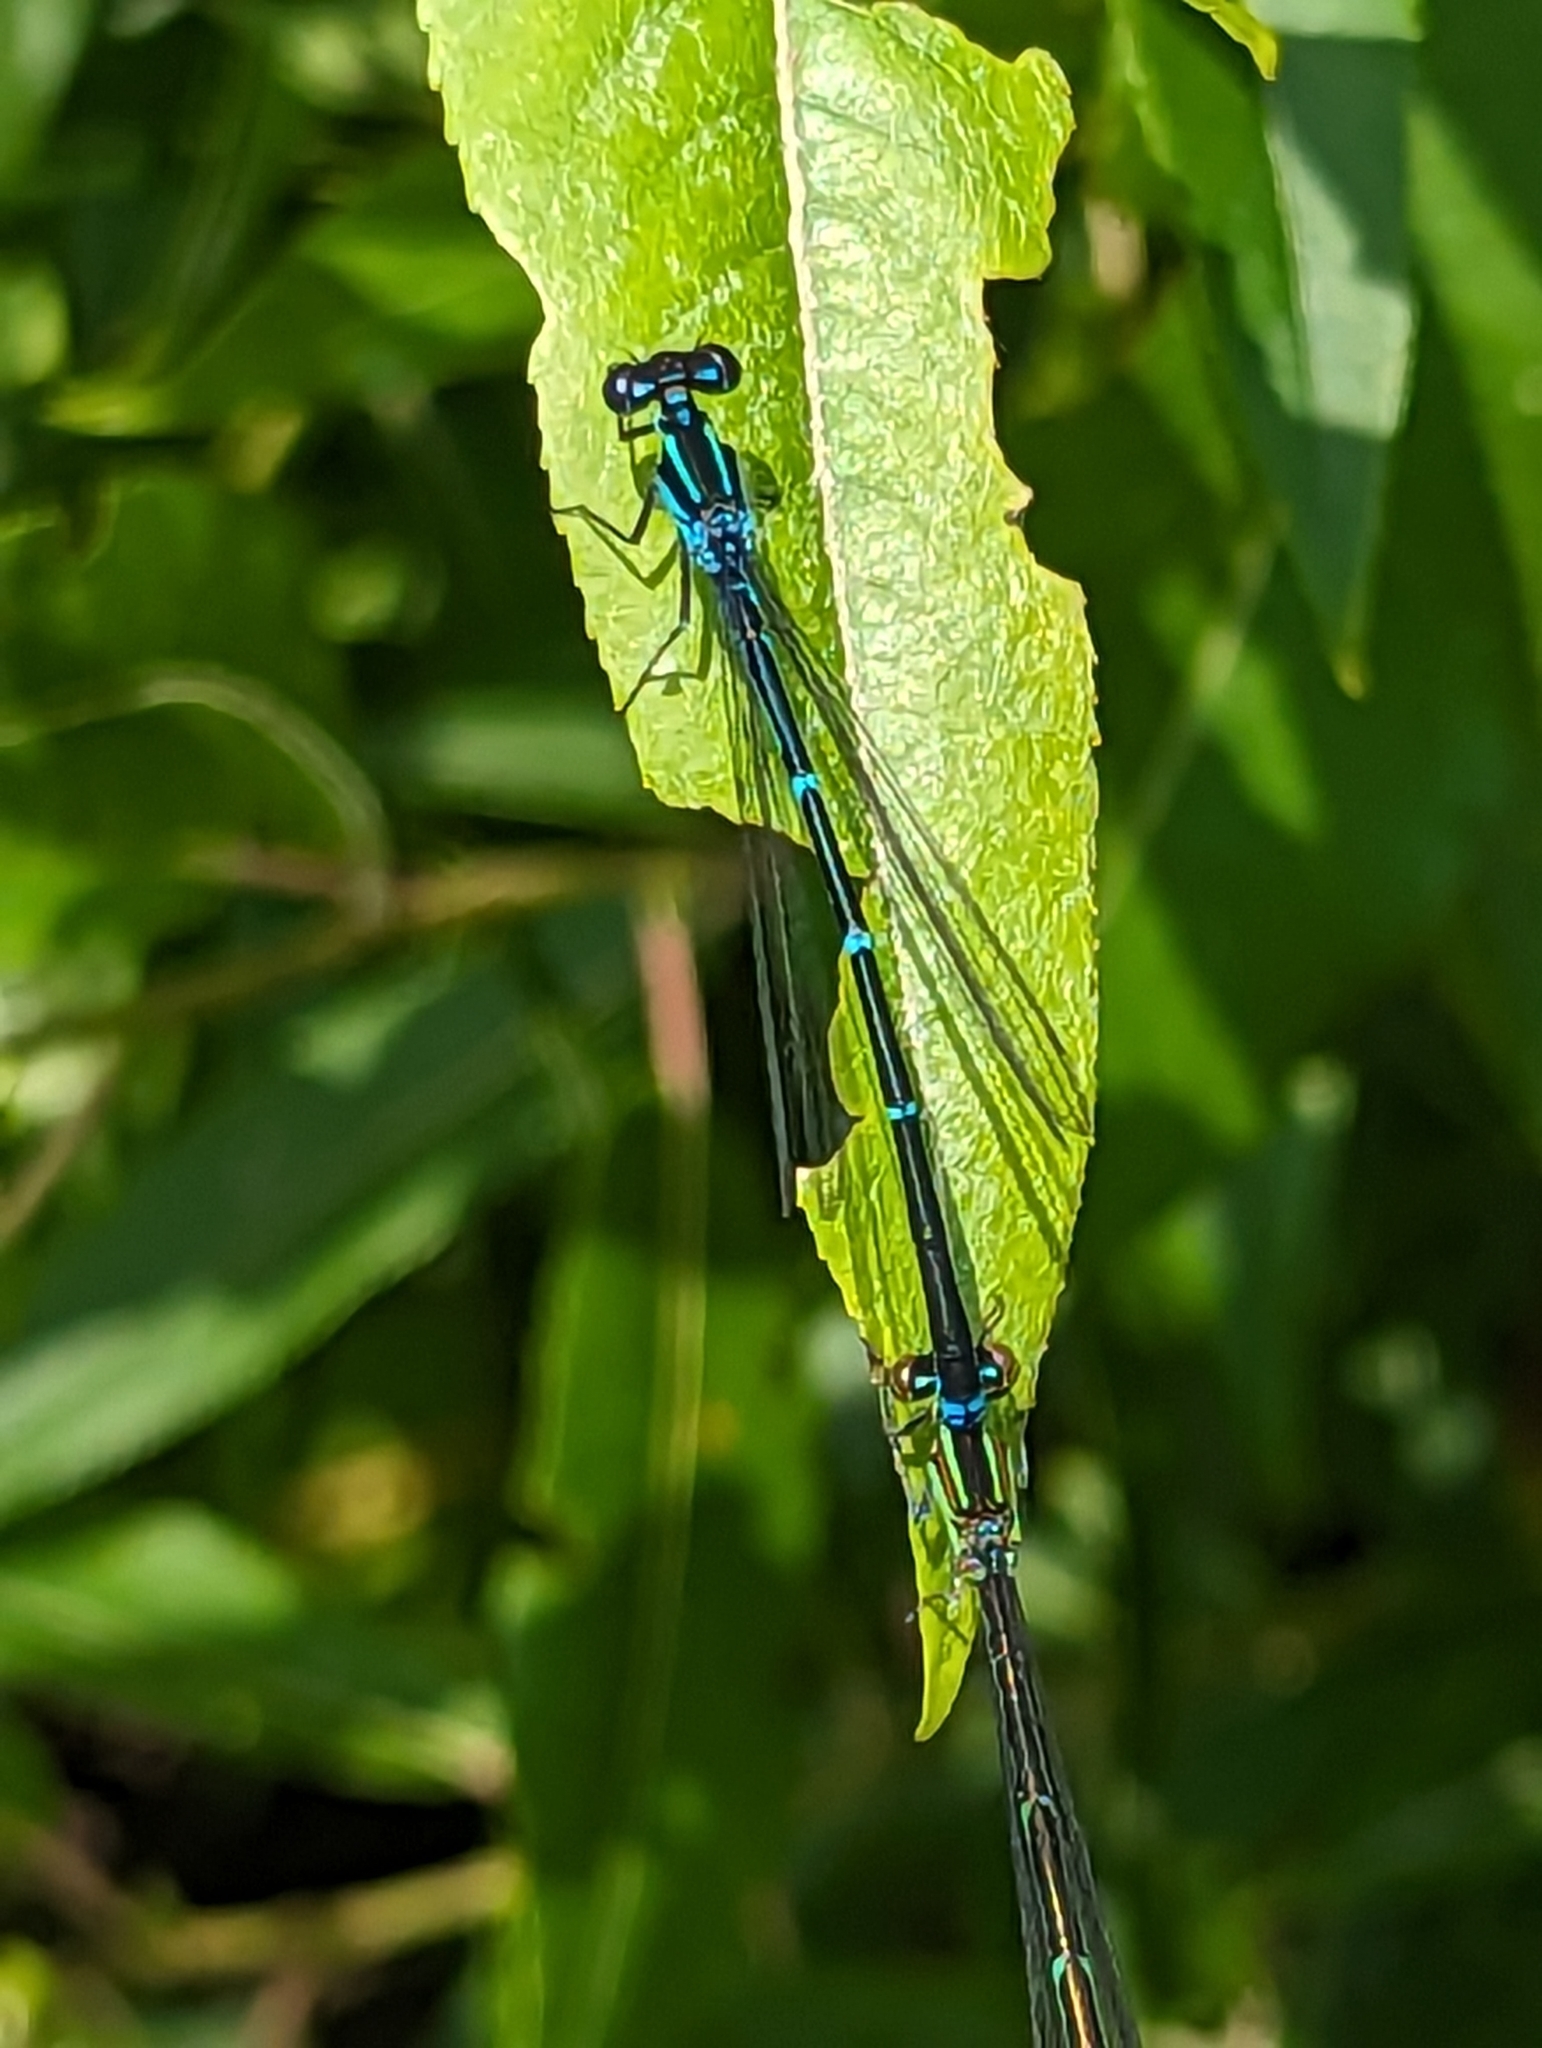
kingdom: Animalia
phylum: Arthropoda
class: Insecta
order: Odonata
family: Coenagrionidae
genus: Enallagma
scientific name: Enallagma exsulans
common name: Stream bluet
